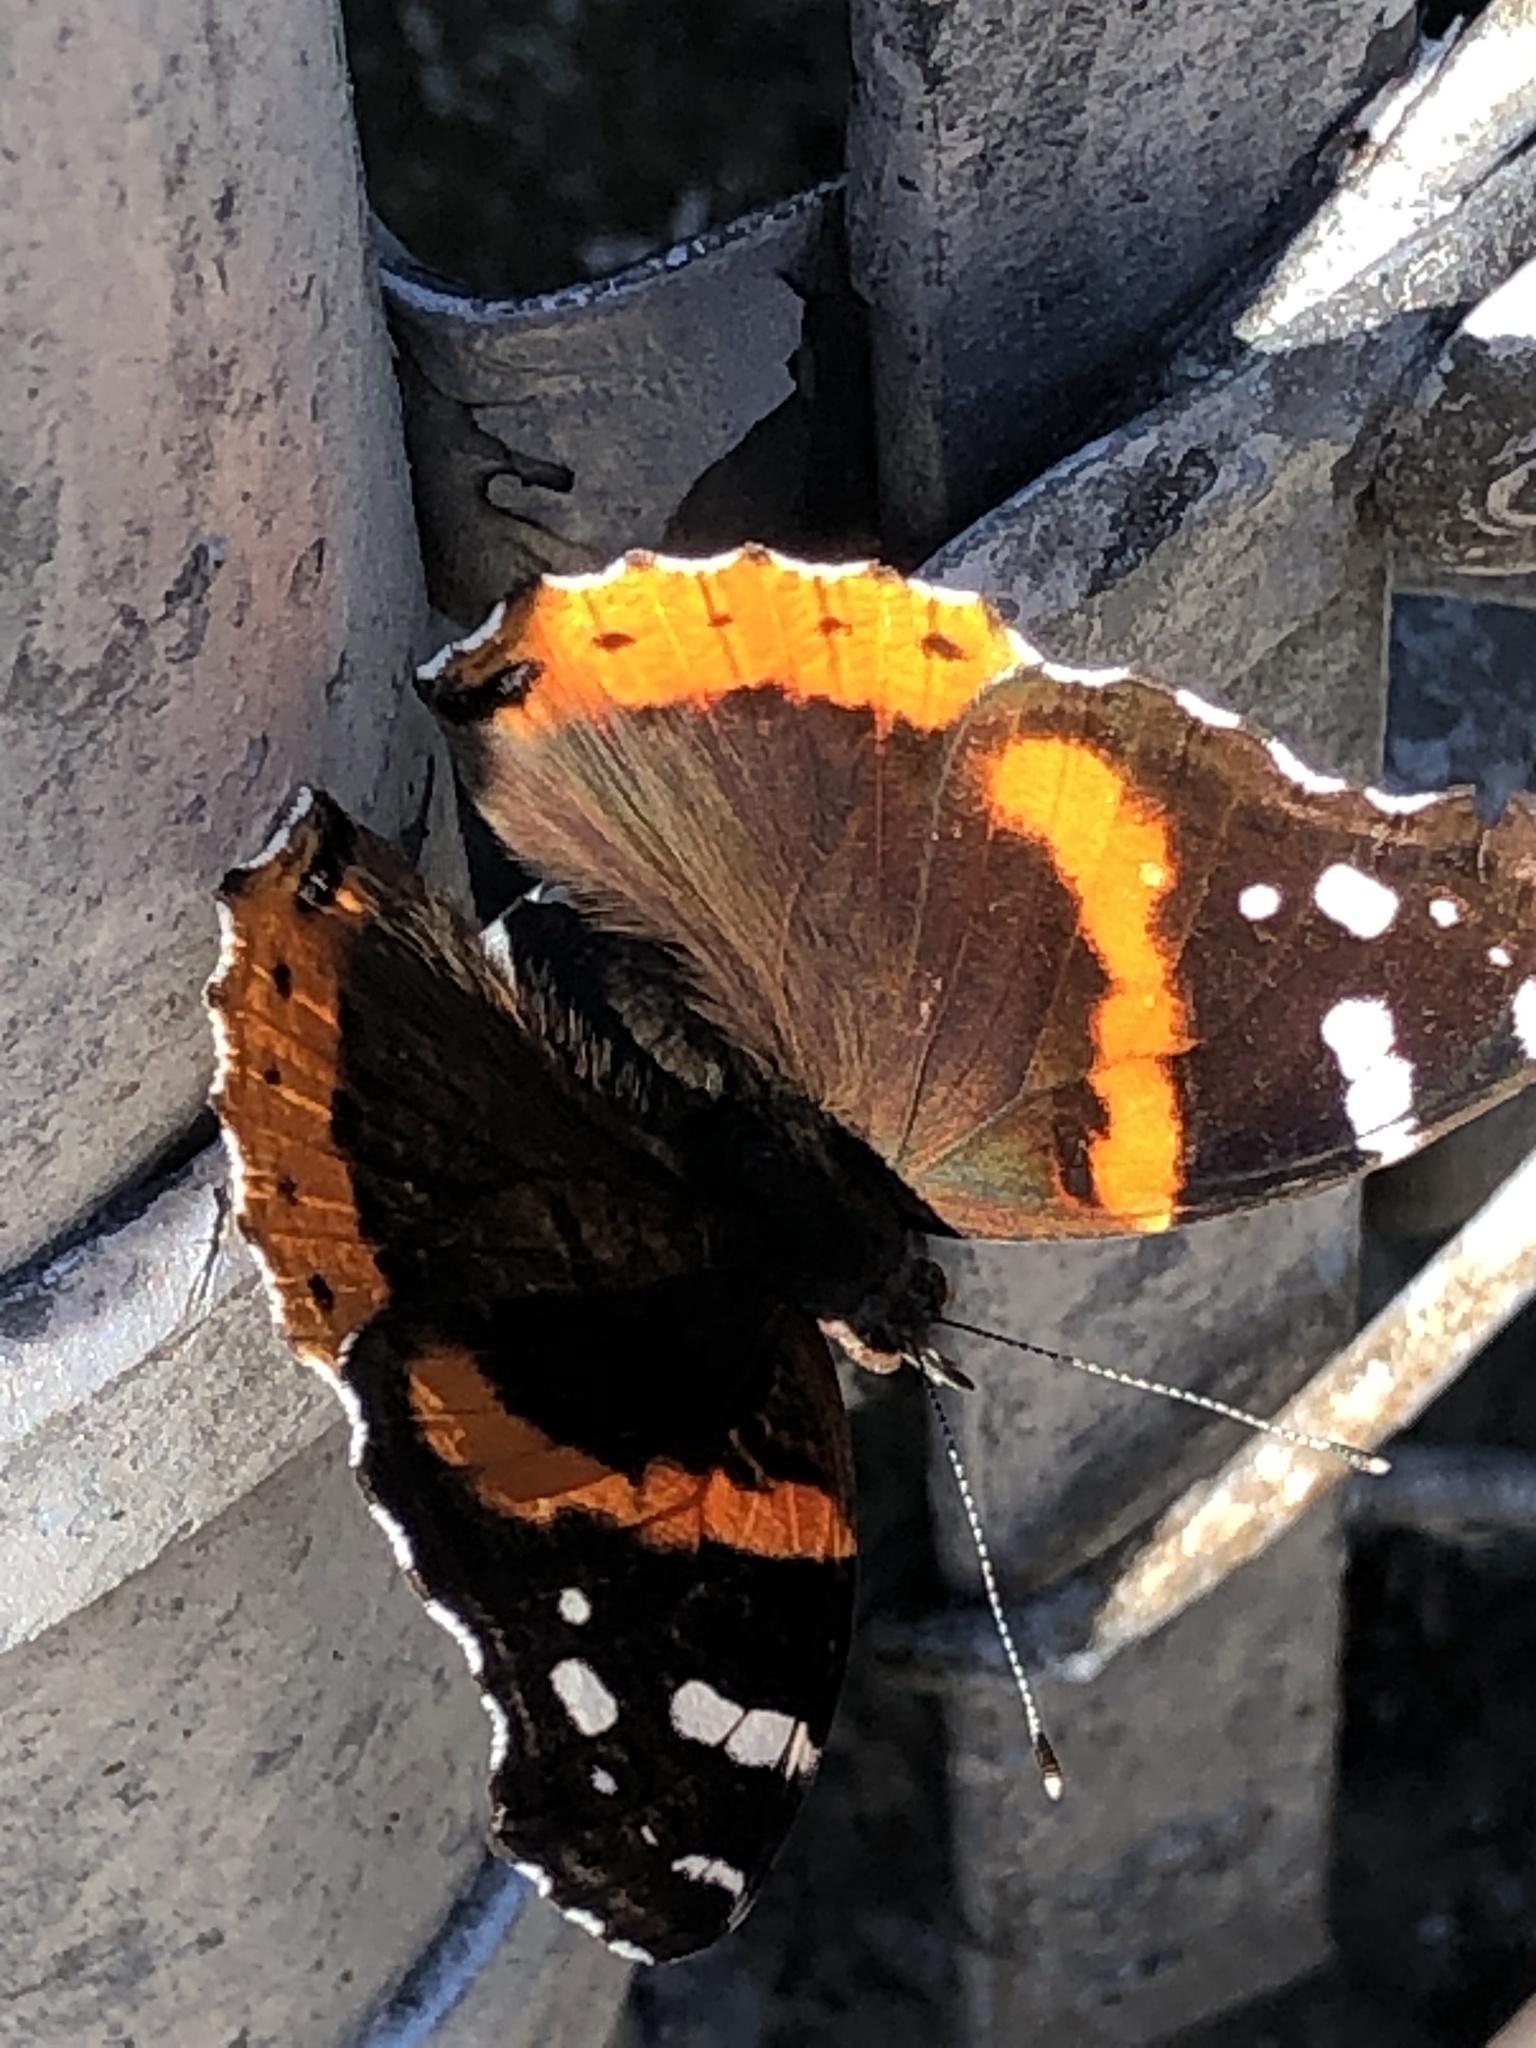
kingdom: Animalia
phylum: Arthropoda
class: Insecta
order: Lepidoptera
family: Nymphalidae
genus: Vanessa
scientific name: Vanessa atalanta
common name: Red admiral
